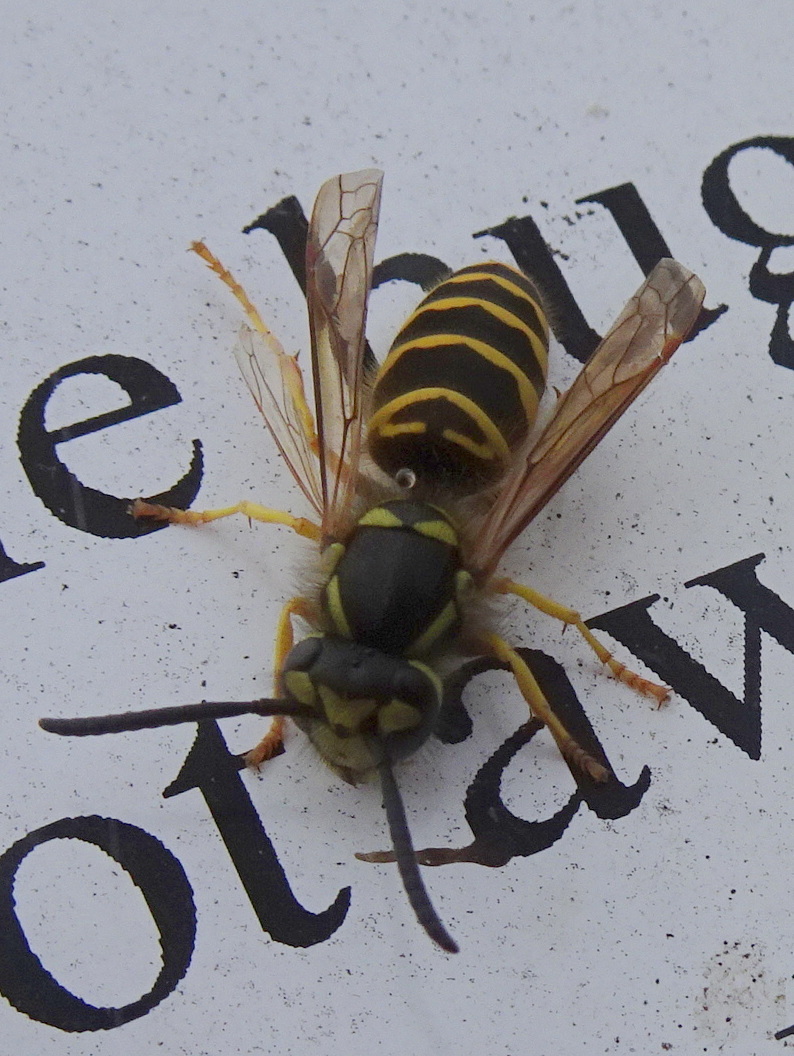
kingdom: Animalia
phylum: Arthropoda
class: Insecta
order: Hymenoptera
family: Vespidae
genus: Vespula
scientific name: Vespula maculifrons
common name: Eastern yellowjacket
